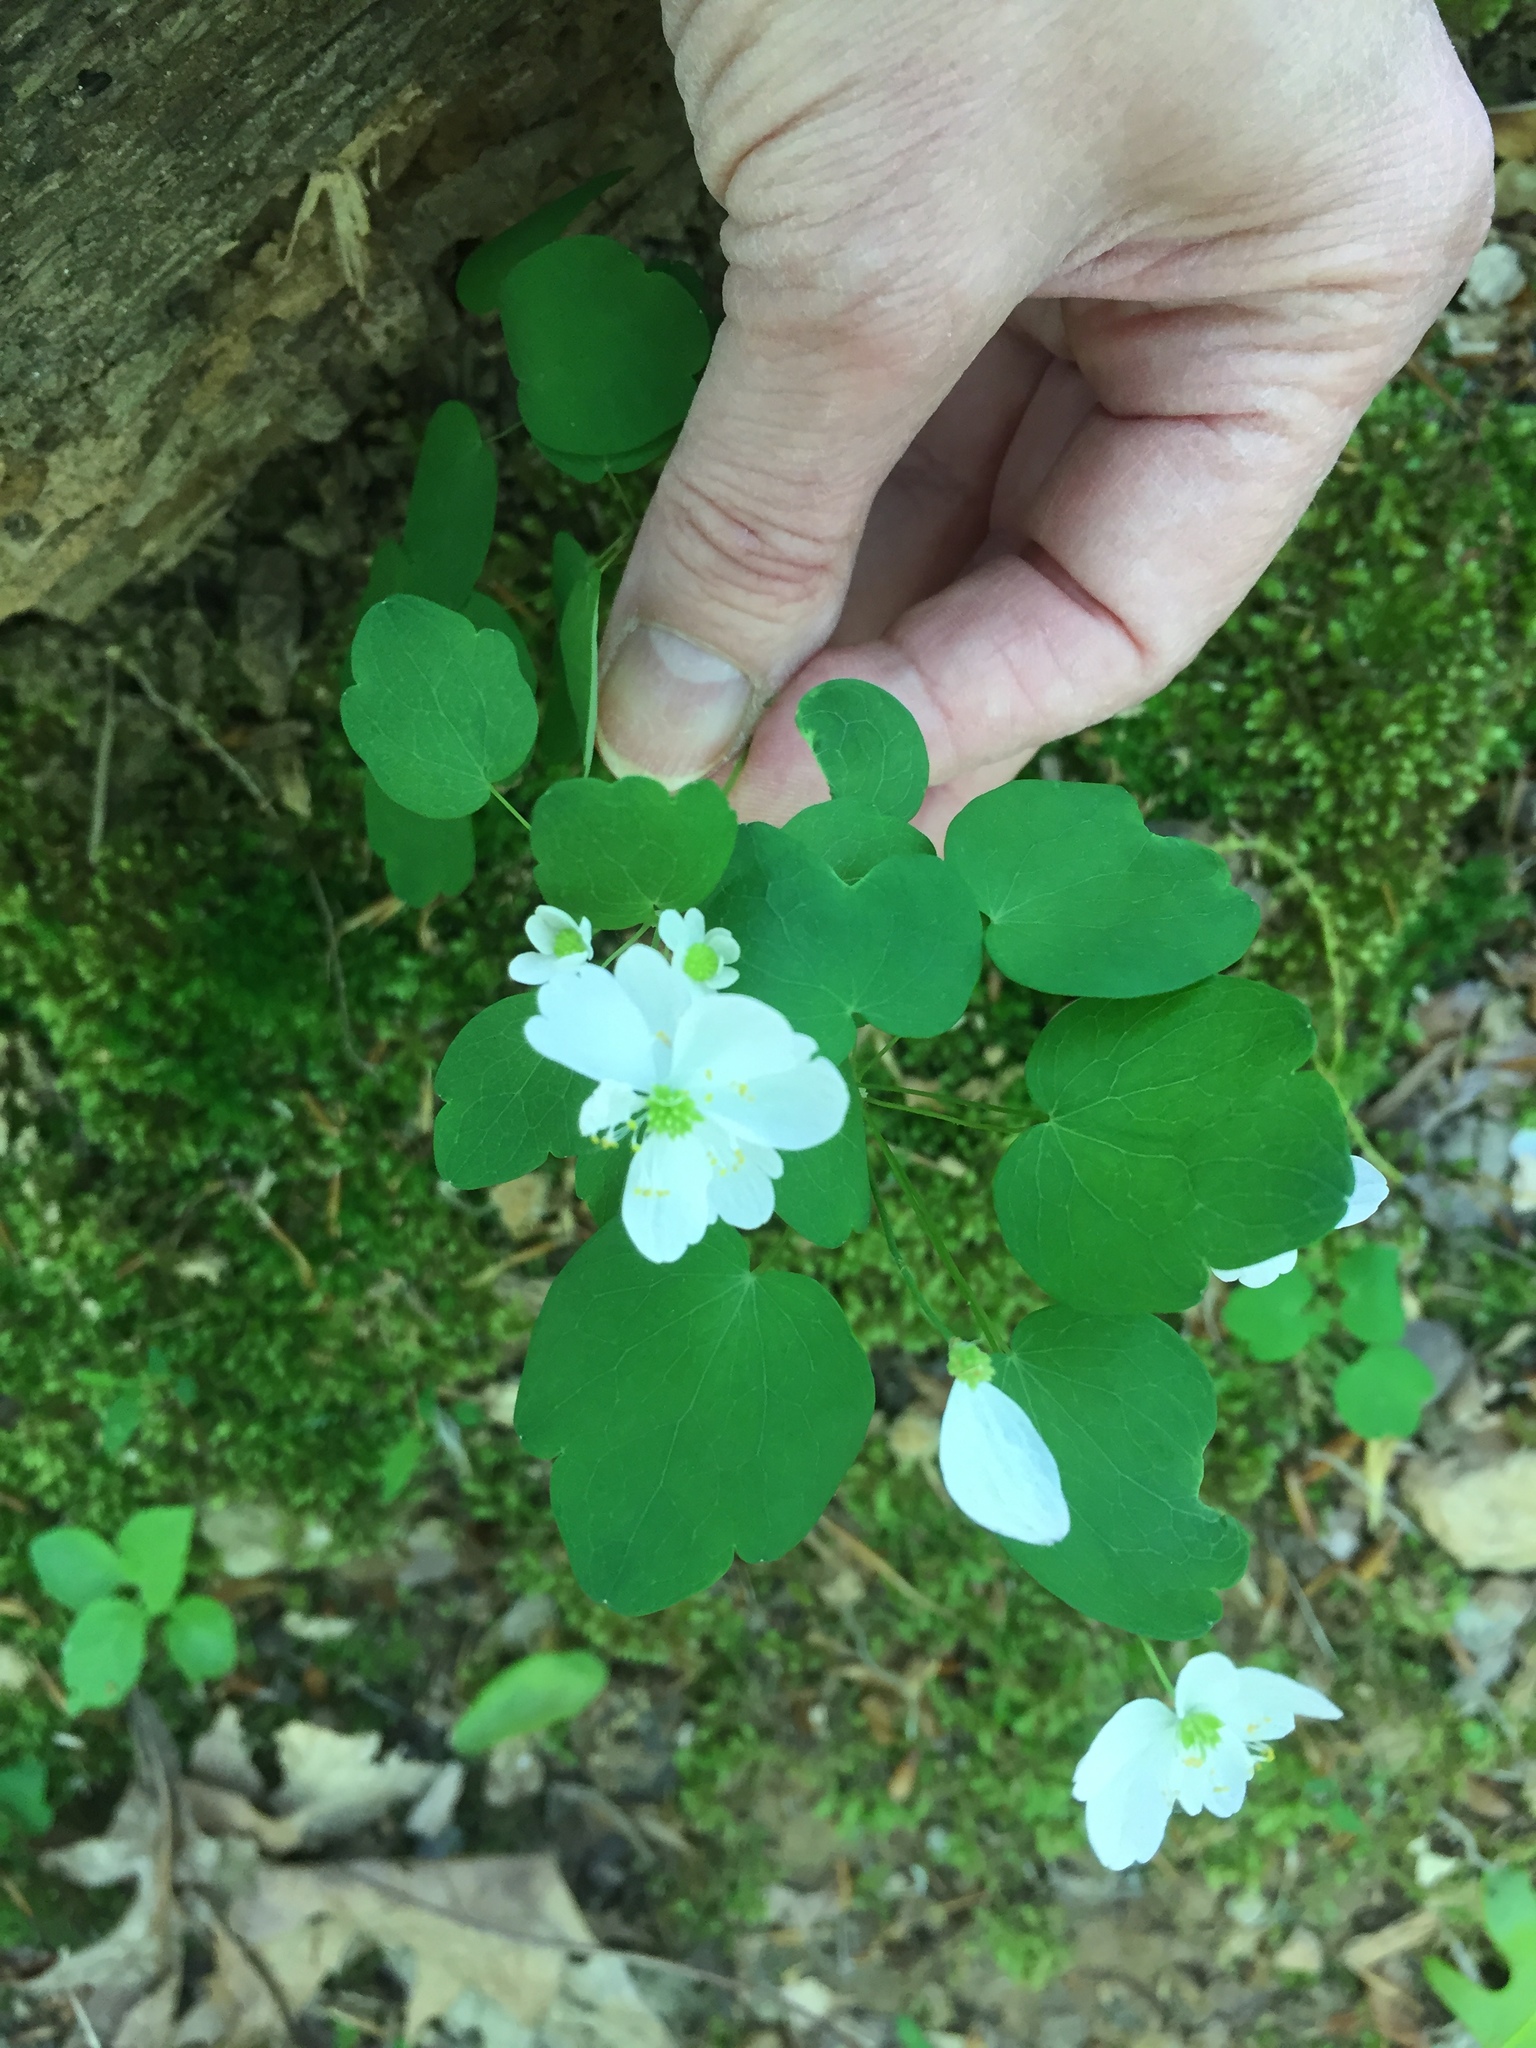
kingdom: Plantae
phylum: Tracheophyta
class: Magnoliopsida
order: Ranunculales
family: Ranunculaceae
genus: Thalictrum
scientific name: Thalictrum thalictroides
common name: Rue-anemone
